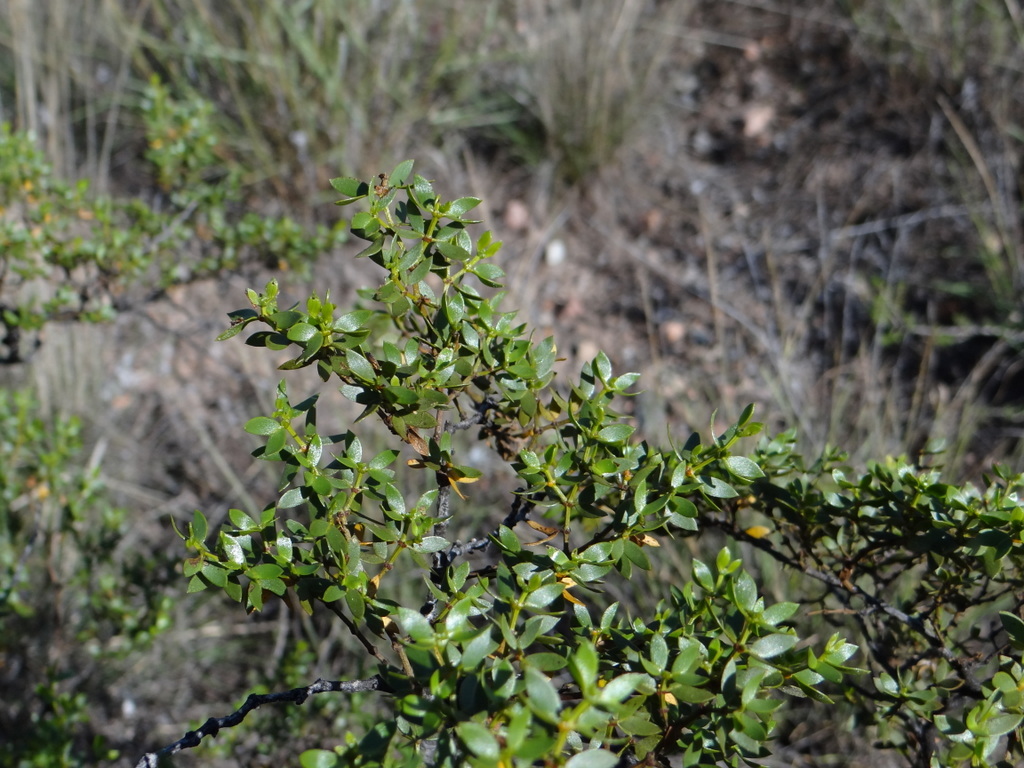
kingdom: Plantae
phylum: Tracheophyta
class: Magnoliopsida
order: Zygophyllales
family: Zygophyllaceae
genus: Larrea
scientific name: Larrea divaricata
